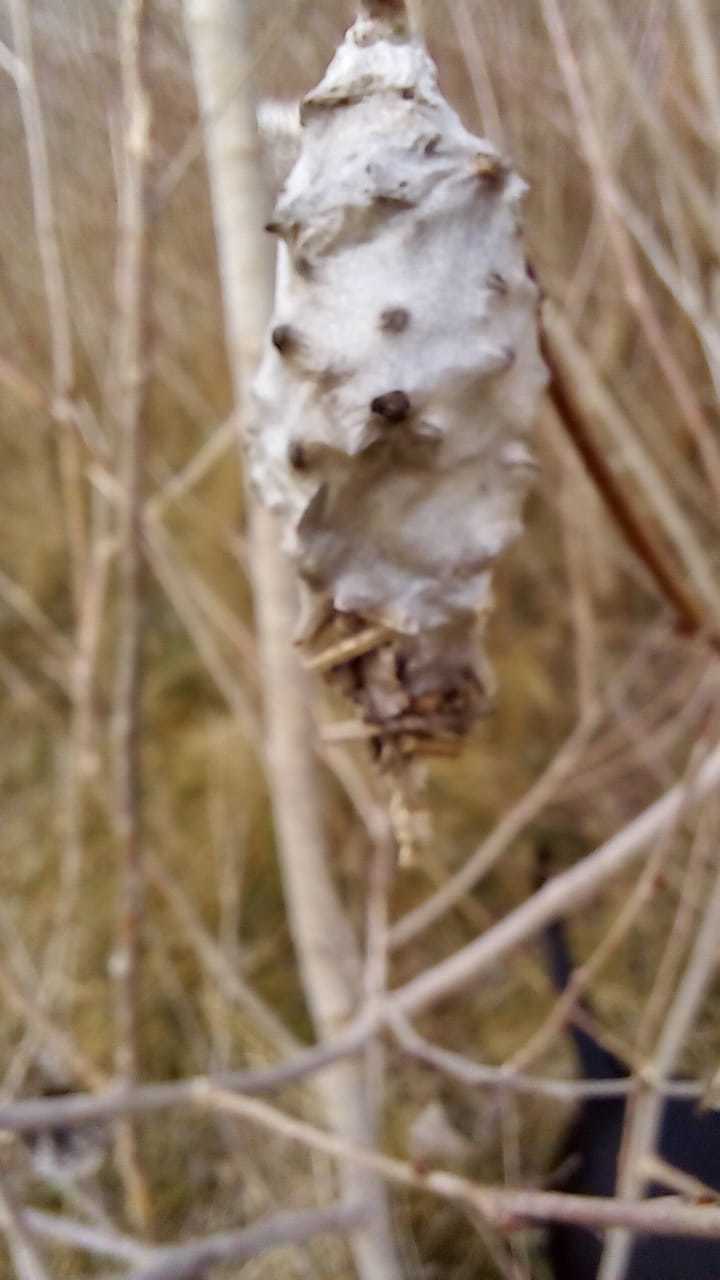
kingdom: Animalia
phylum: Arthropoda
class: Insecta
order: Lepidoptera
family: Psychidae
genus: Oiketicus
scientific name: Oiketicus
